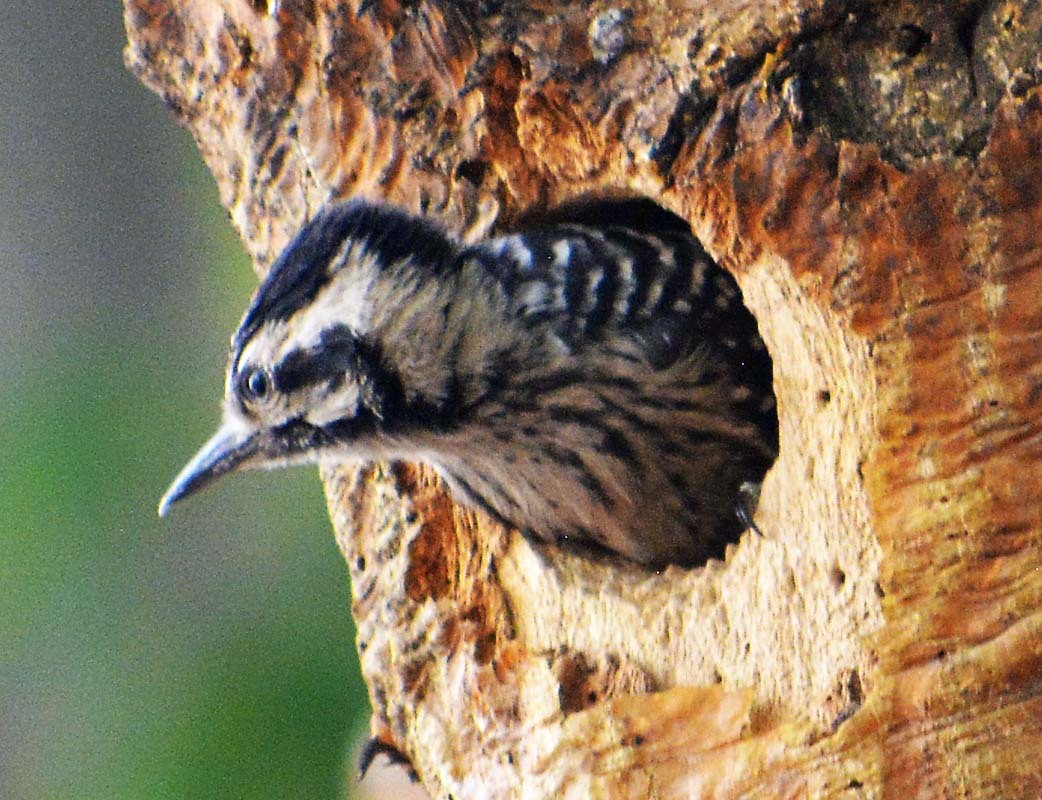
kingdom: Animalia
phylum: Chordata
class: Aves
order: Piciformes
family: Picidae
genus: Dryobates
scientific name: Dryobates scalaris
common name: Ladder-backed woodpecker
